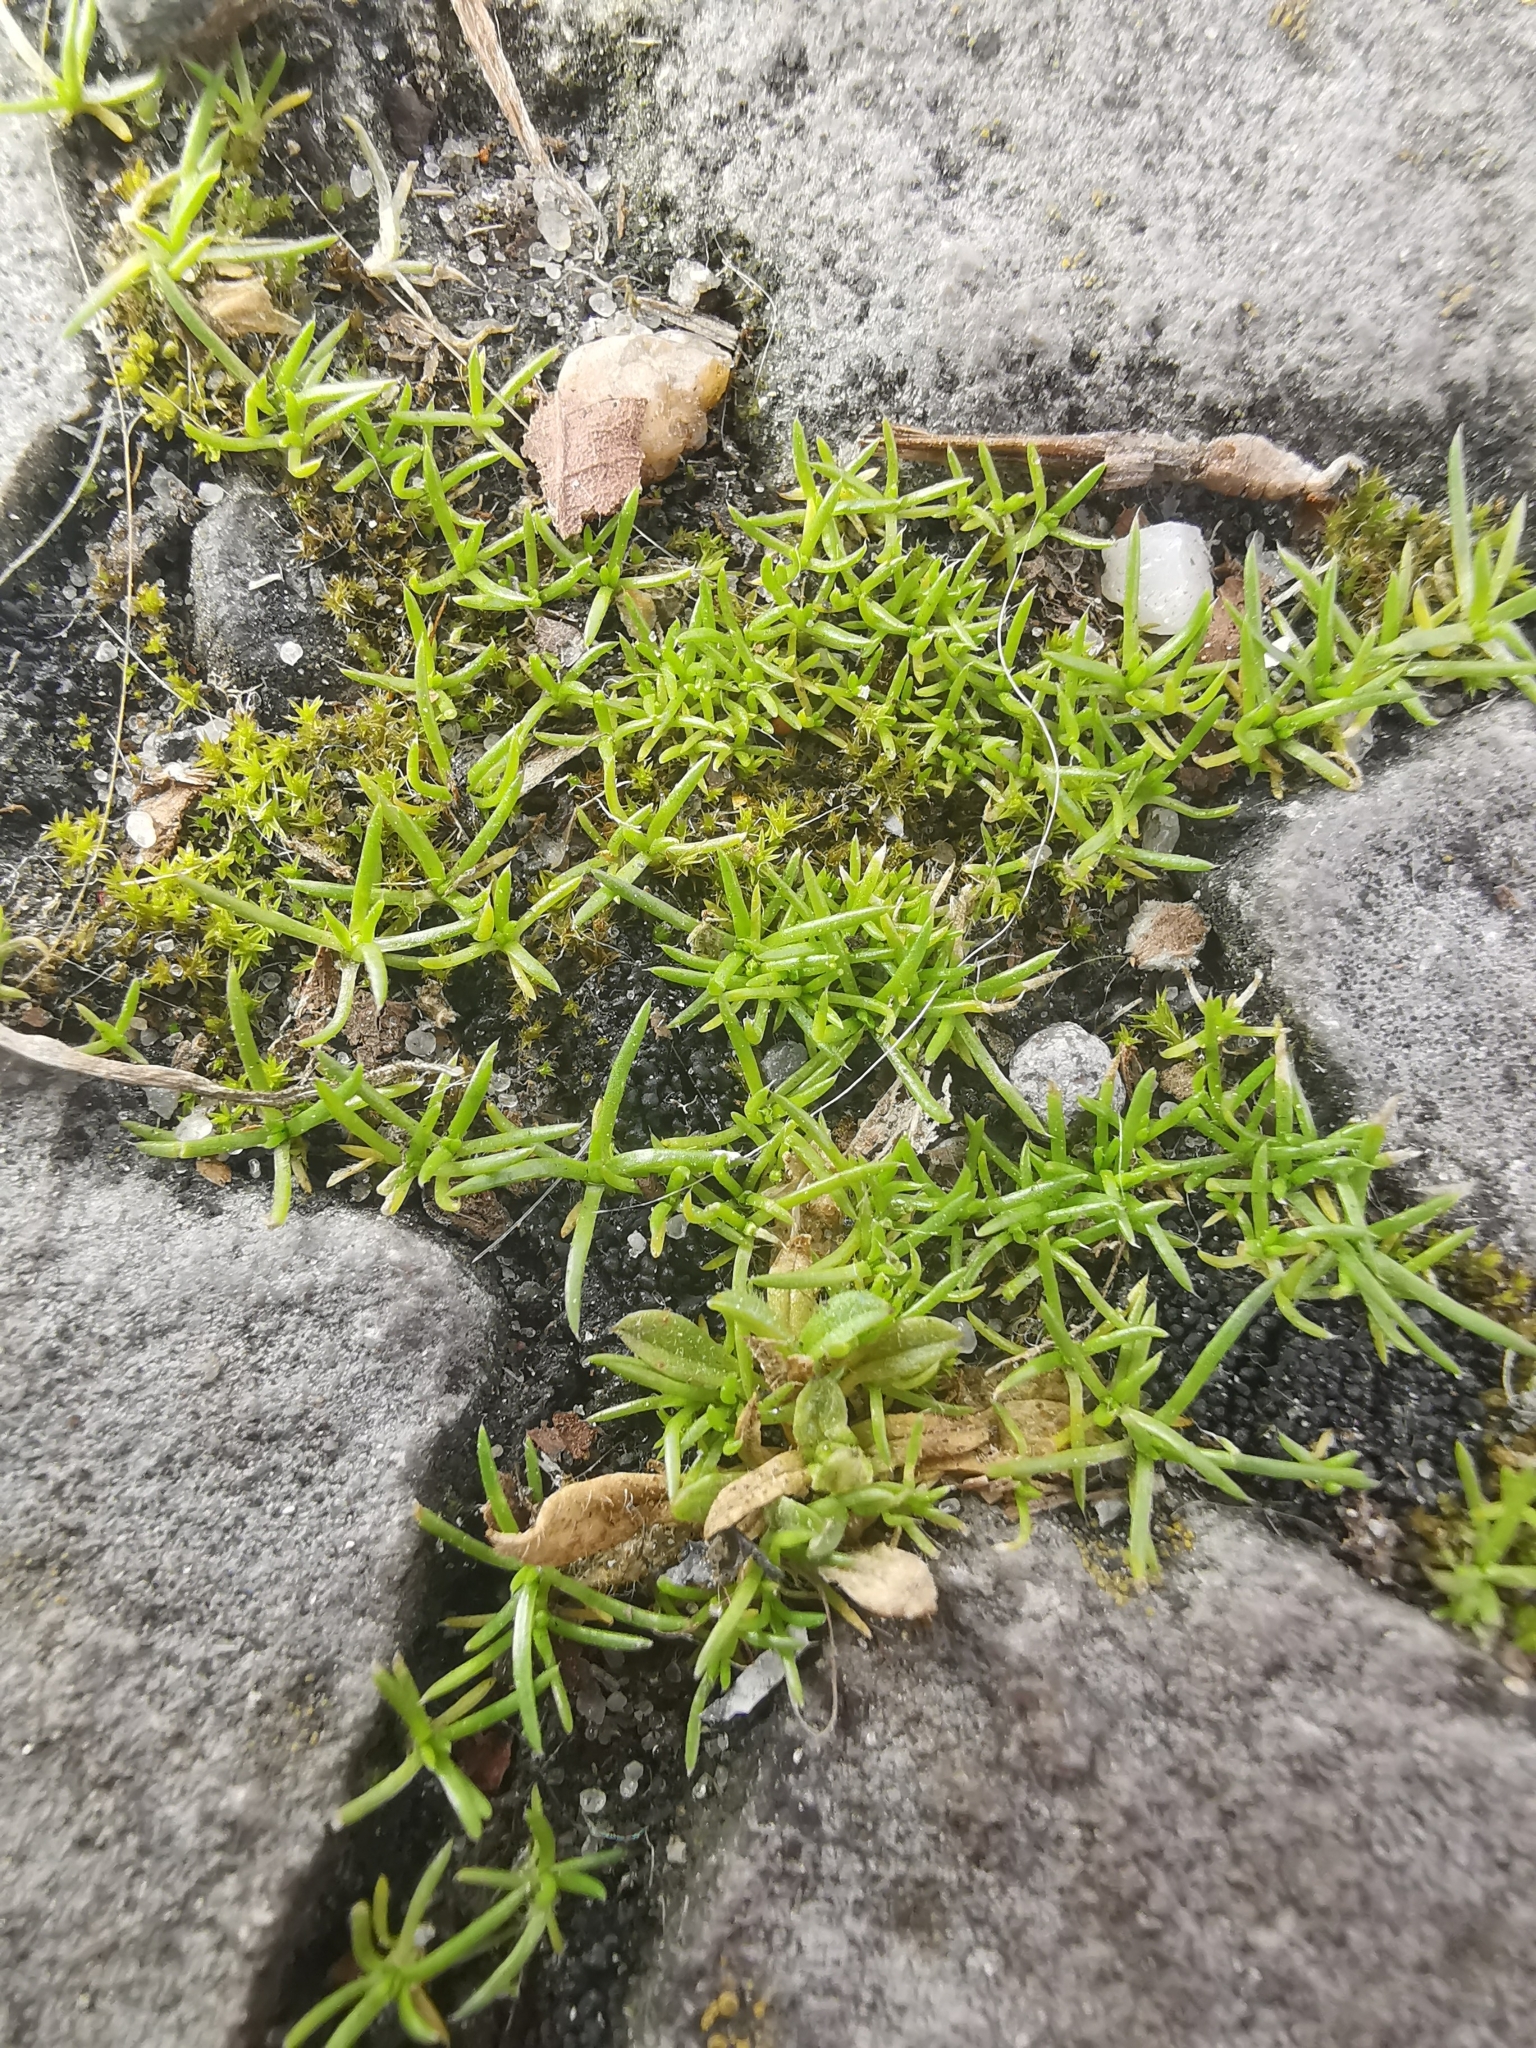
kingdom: Plantae
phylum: Tracheophyta
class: Magnoliopsida
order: Caryophyllales
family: Caryophyllaceae
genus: Sagina
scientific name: Sagina procumbens
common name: Procumbent pearlwort
